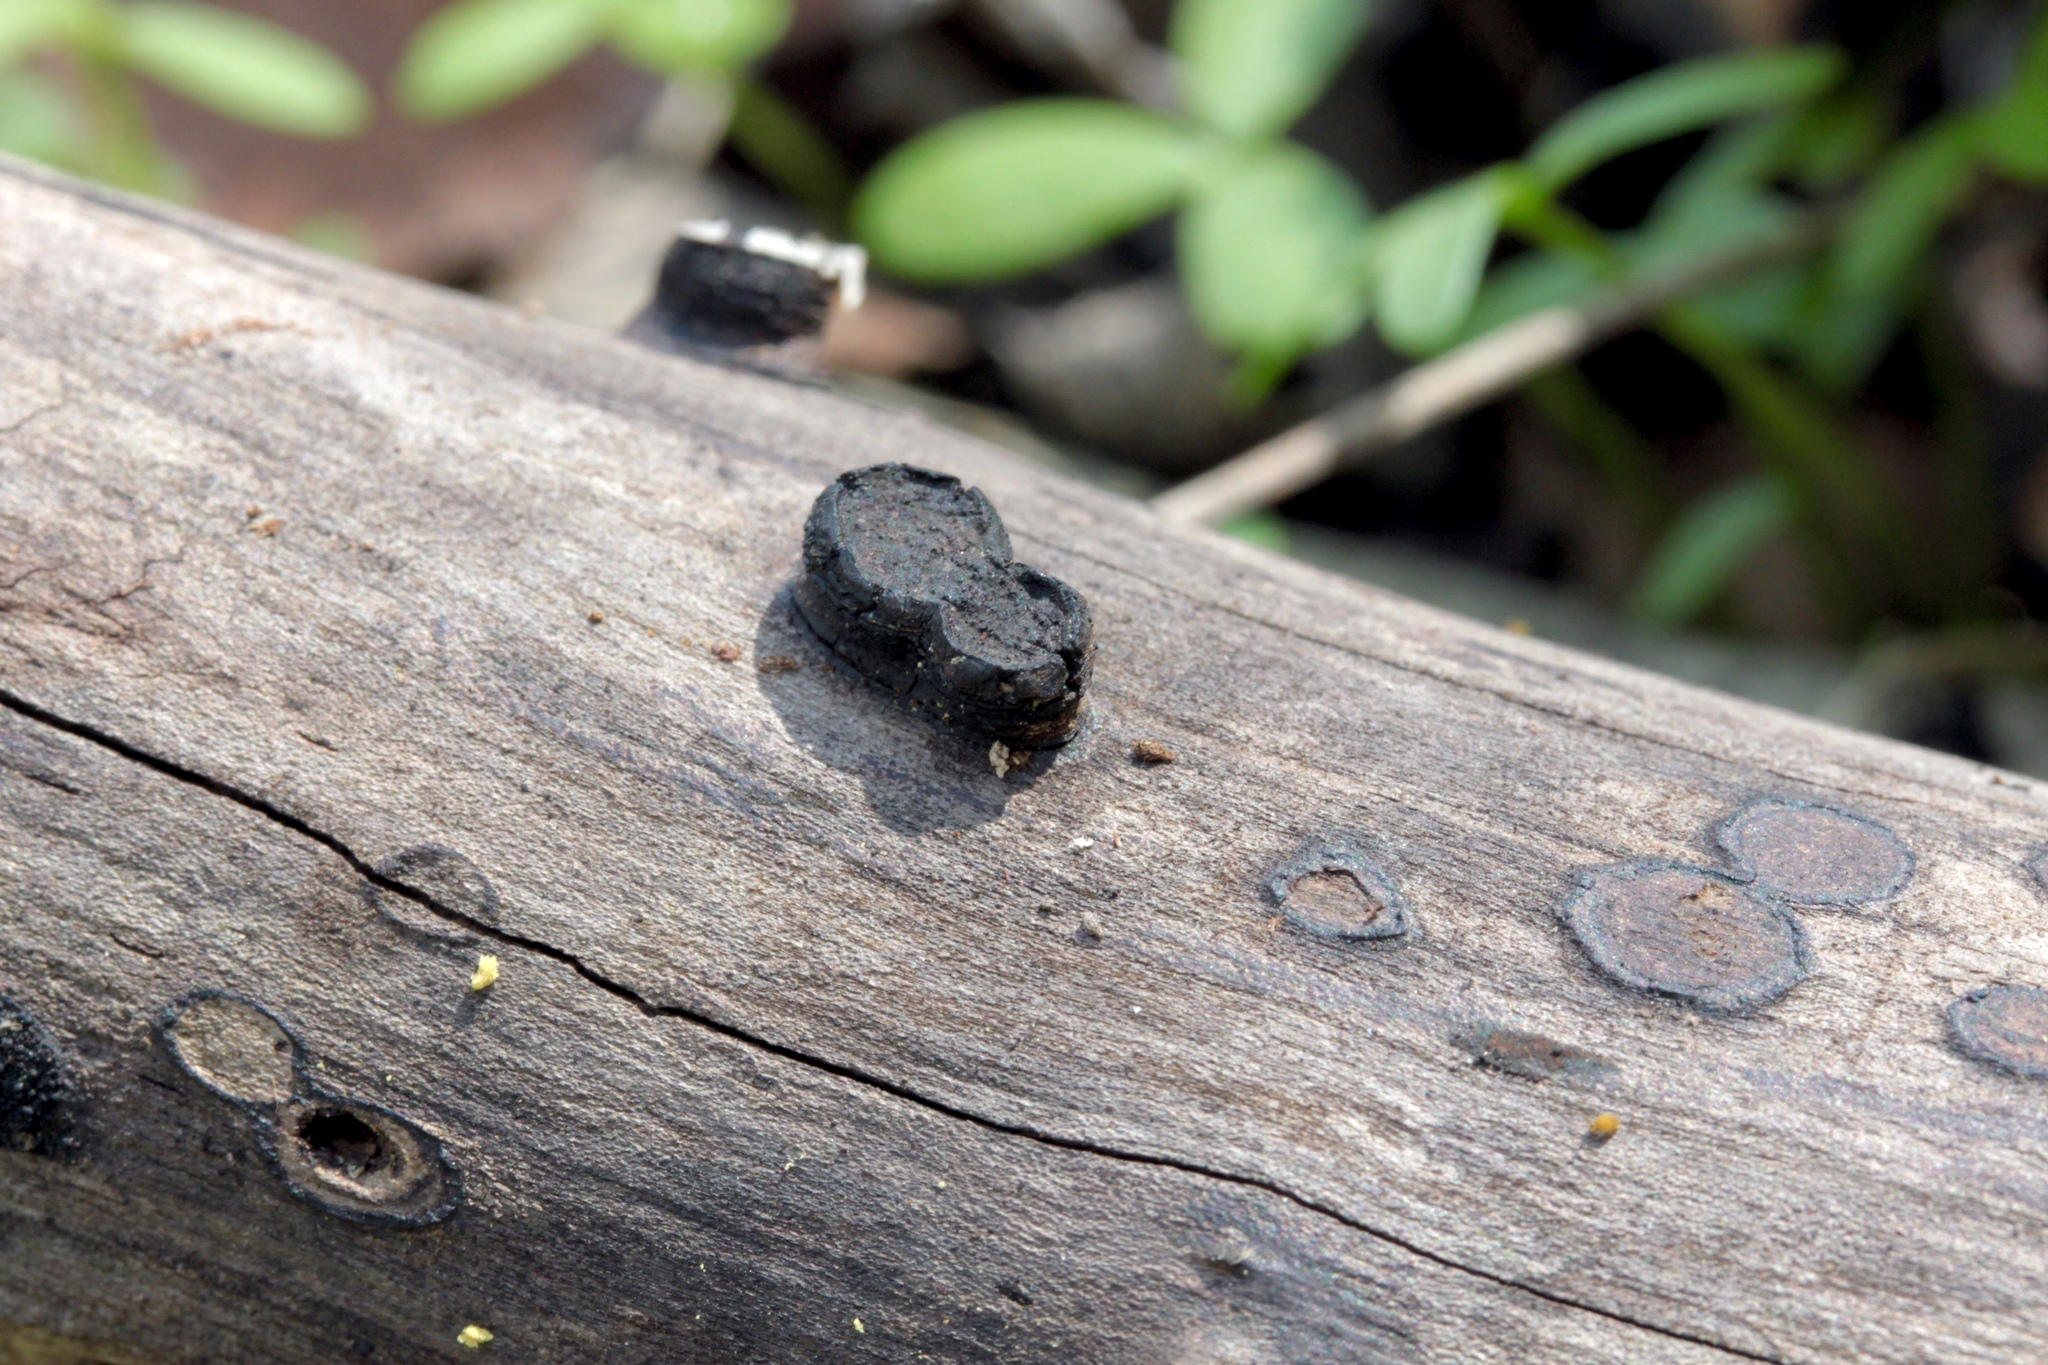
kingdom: Fungi
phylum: Ascomycota
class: Sordariomycetes
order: Xylariales
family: Graphostromataceae
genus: Biscogniauxia
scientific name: Biscogniauxia marginata
